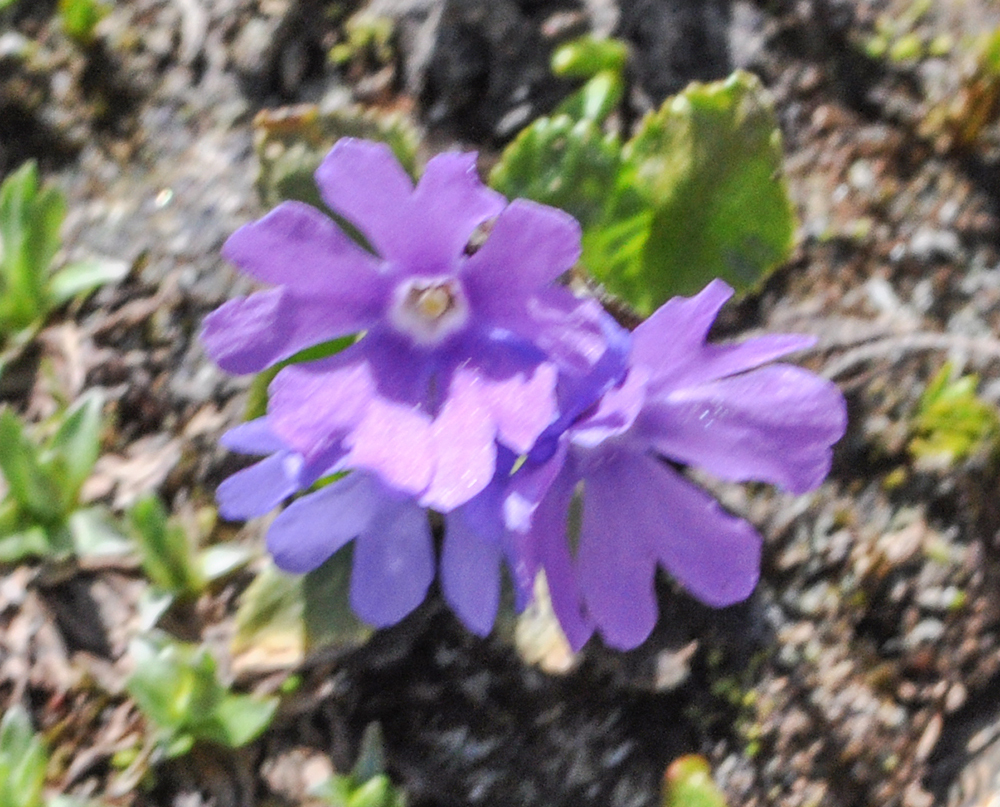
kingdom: Plantae
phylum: Tracheophyta
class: Magnoliopsida
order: Ericales
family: Primulaceae
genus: Primula
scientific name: Primula glutinosa
